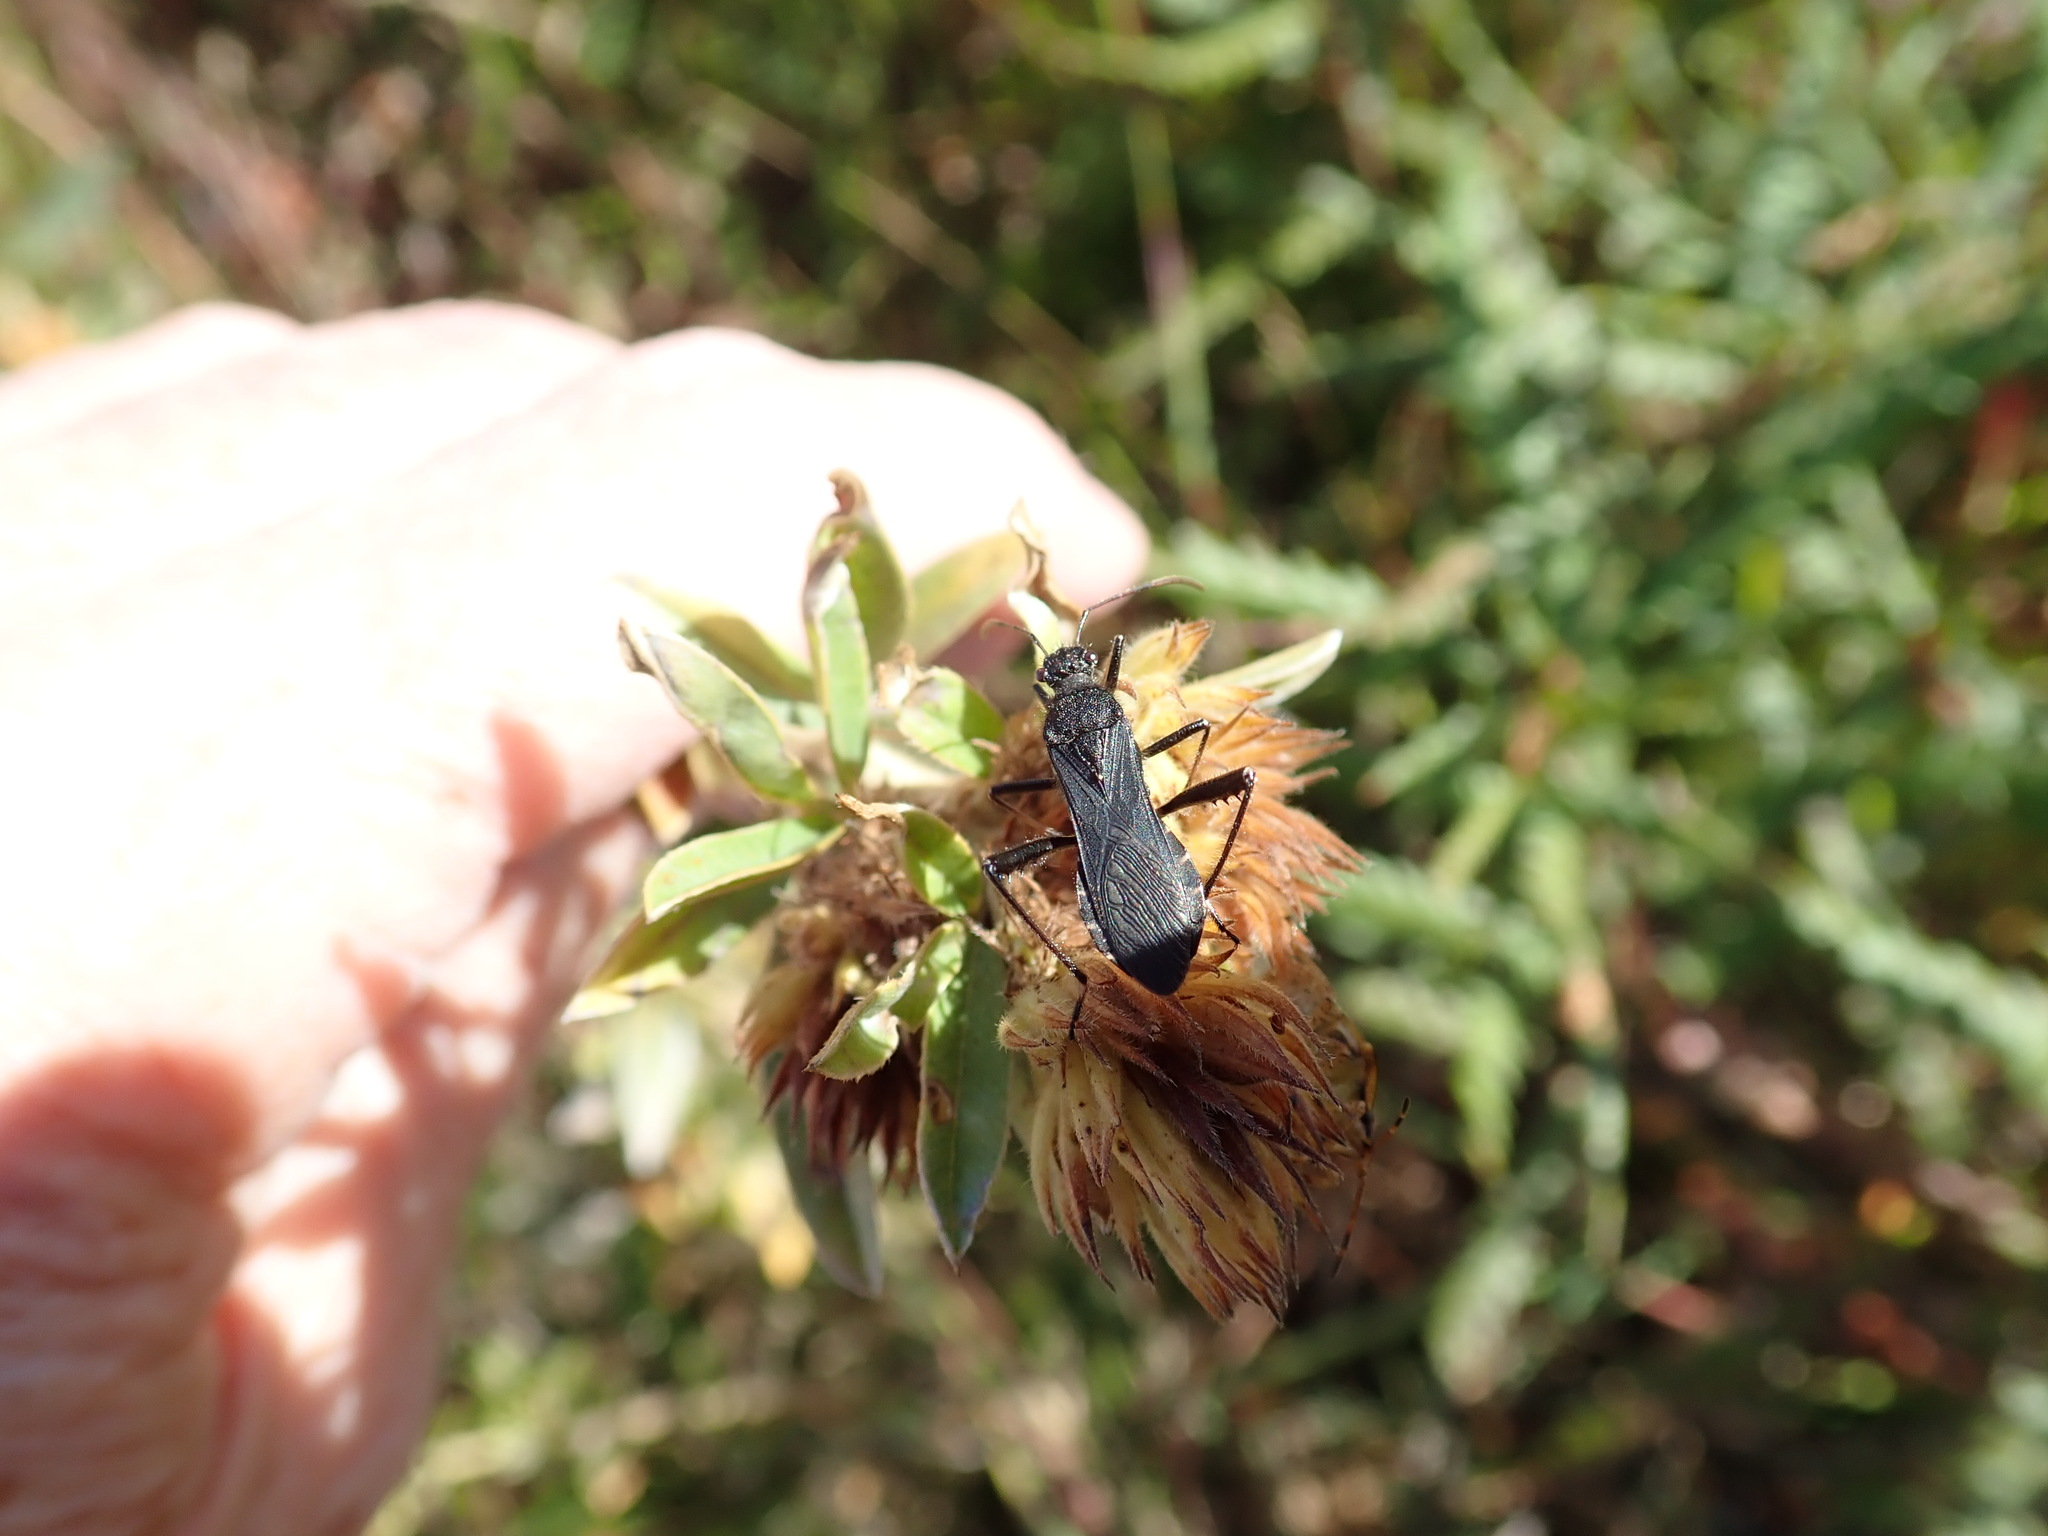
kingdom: Animalia
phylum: Arthropoda
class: Insecta
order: Hemiptera
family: Alydidae
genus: Alydus
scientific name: Alydus eurinus
